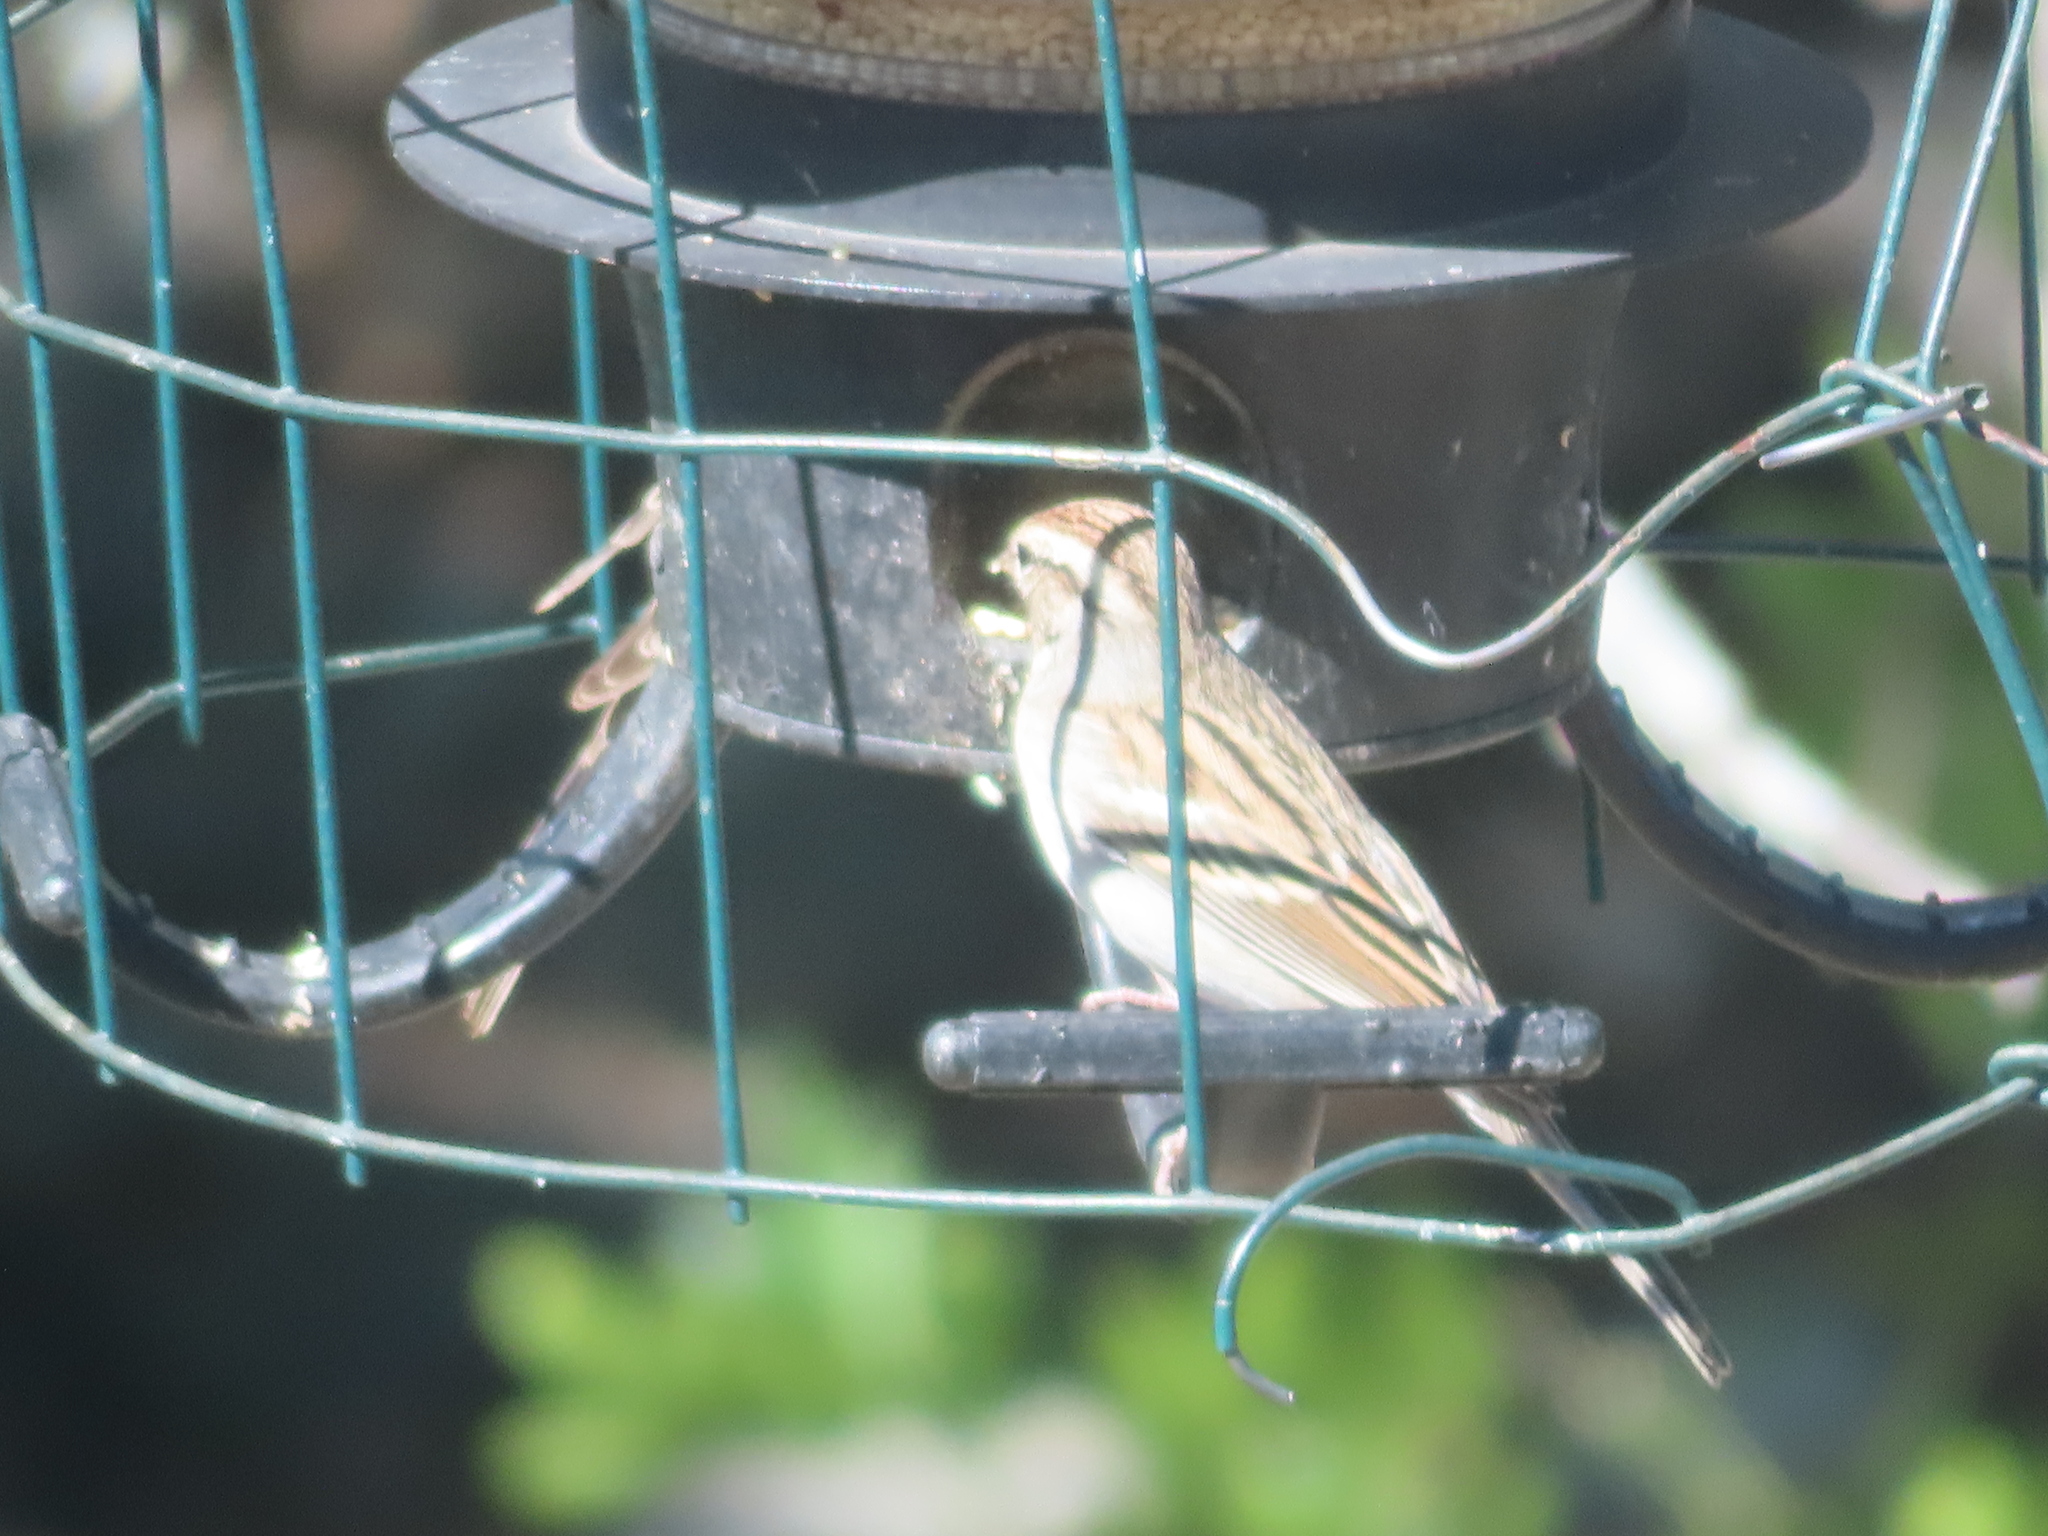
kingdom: Animalia
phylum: Chordata
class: Aves
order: Passeriformes
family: Passerellidae
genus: Spizella
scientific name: Spizella passerina
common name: Chipping sparrow
